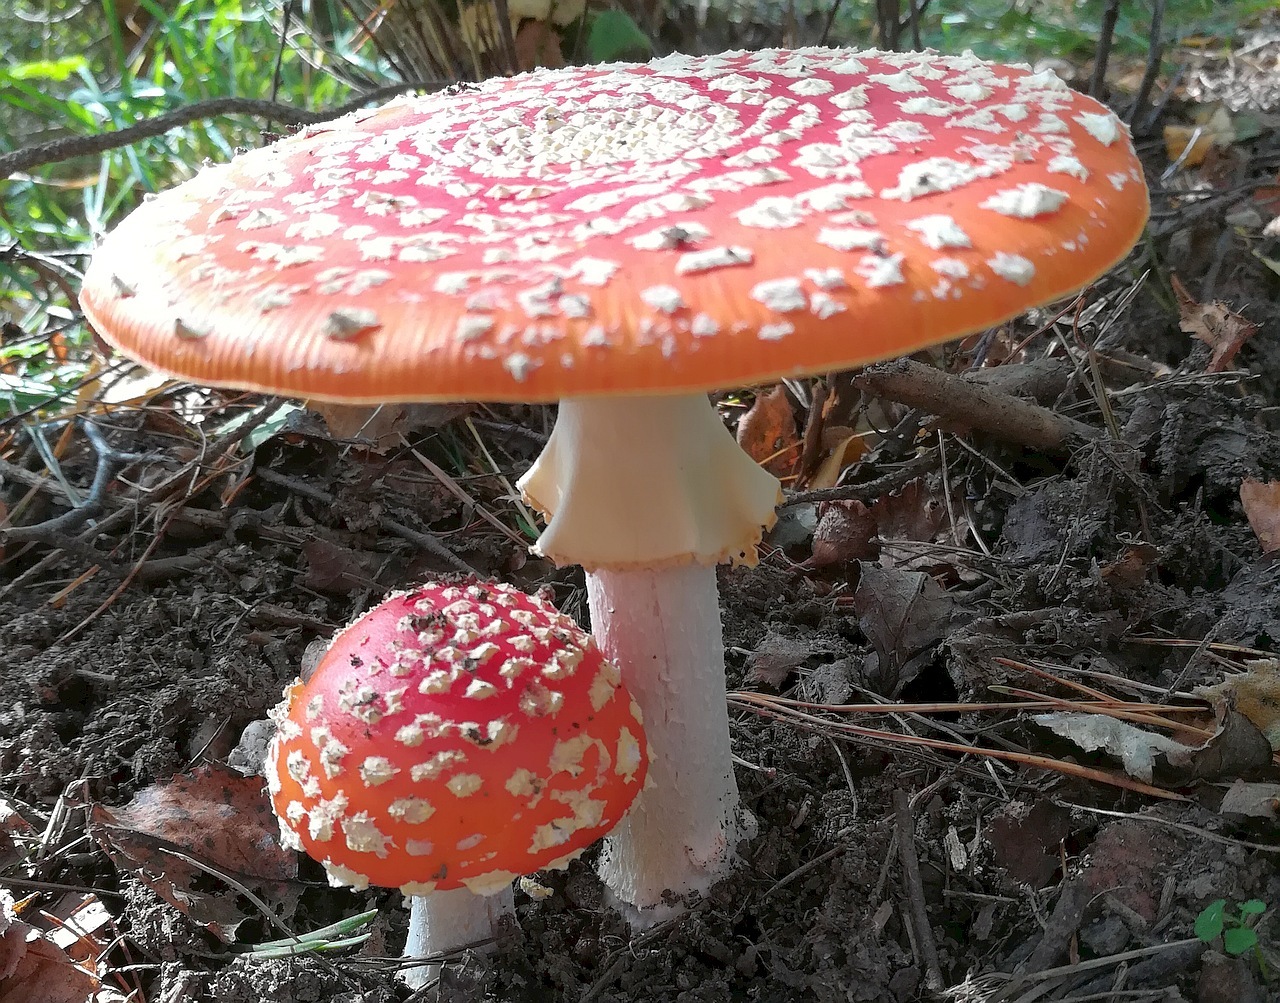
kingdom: Fungi
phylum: Basidiomycota
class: Agaricomycetes
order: Agaricales
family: Amanitaceae
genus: Amanita
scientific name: Amanita muscaria
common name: Fly agaric
